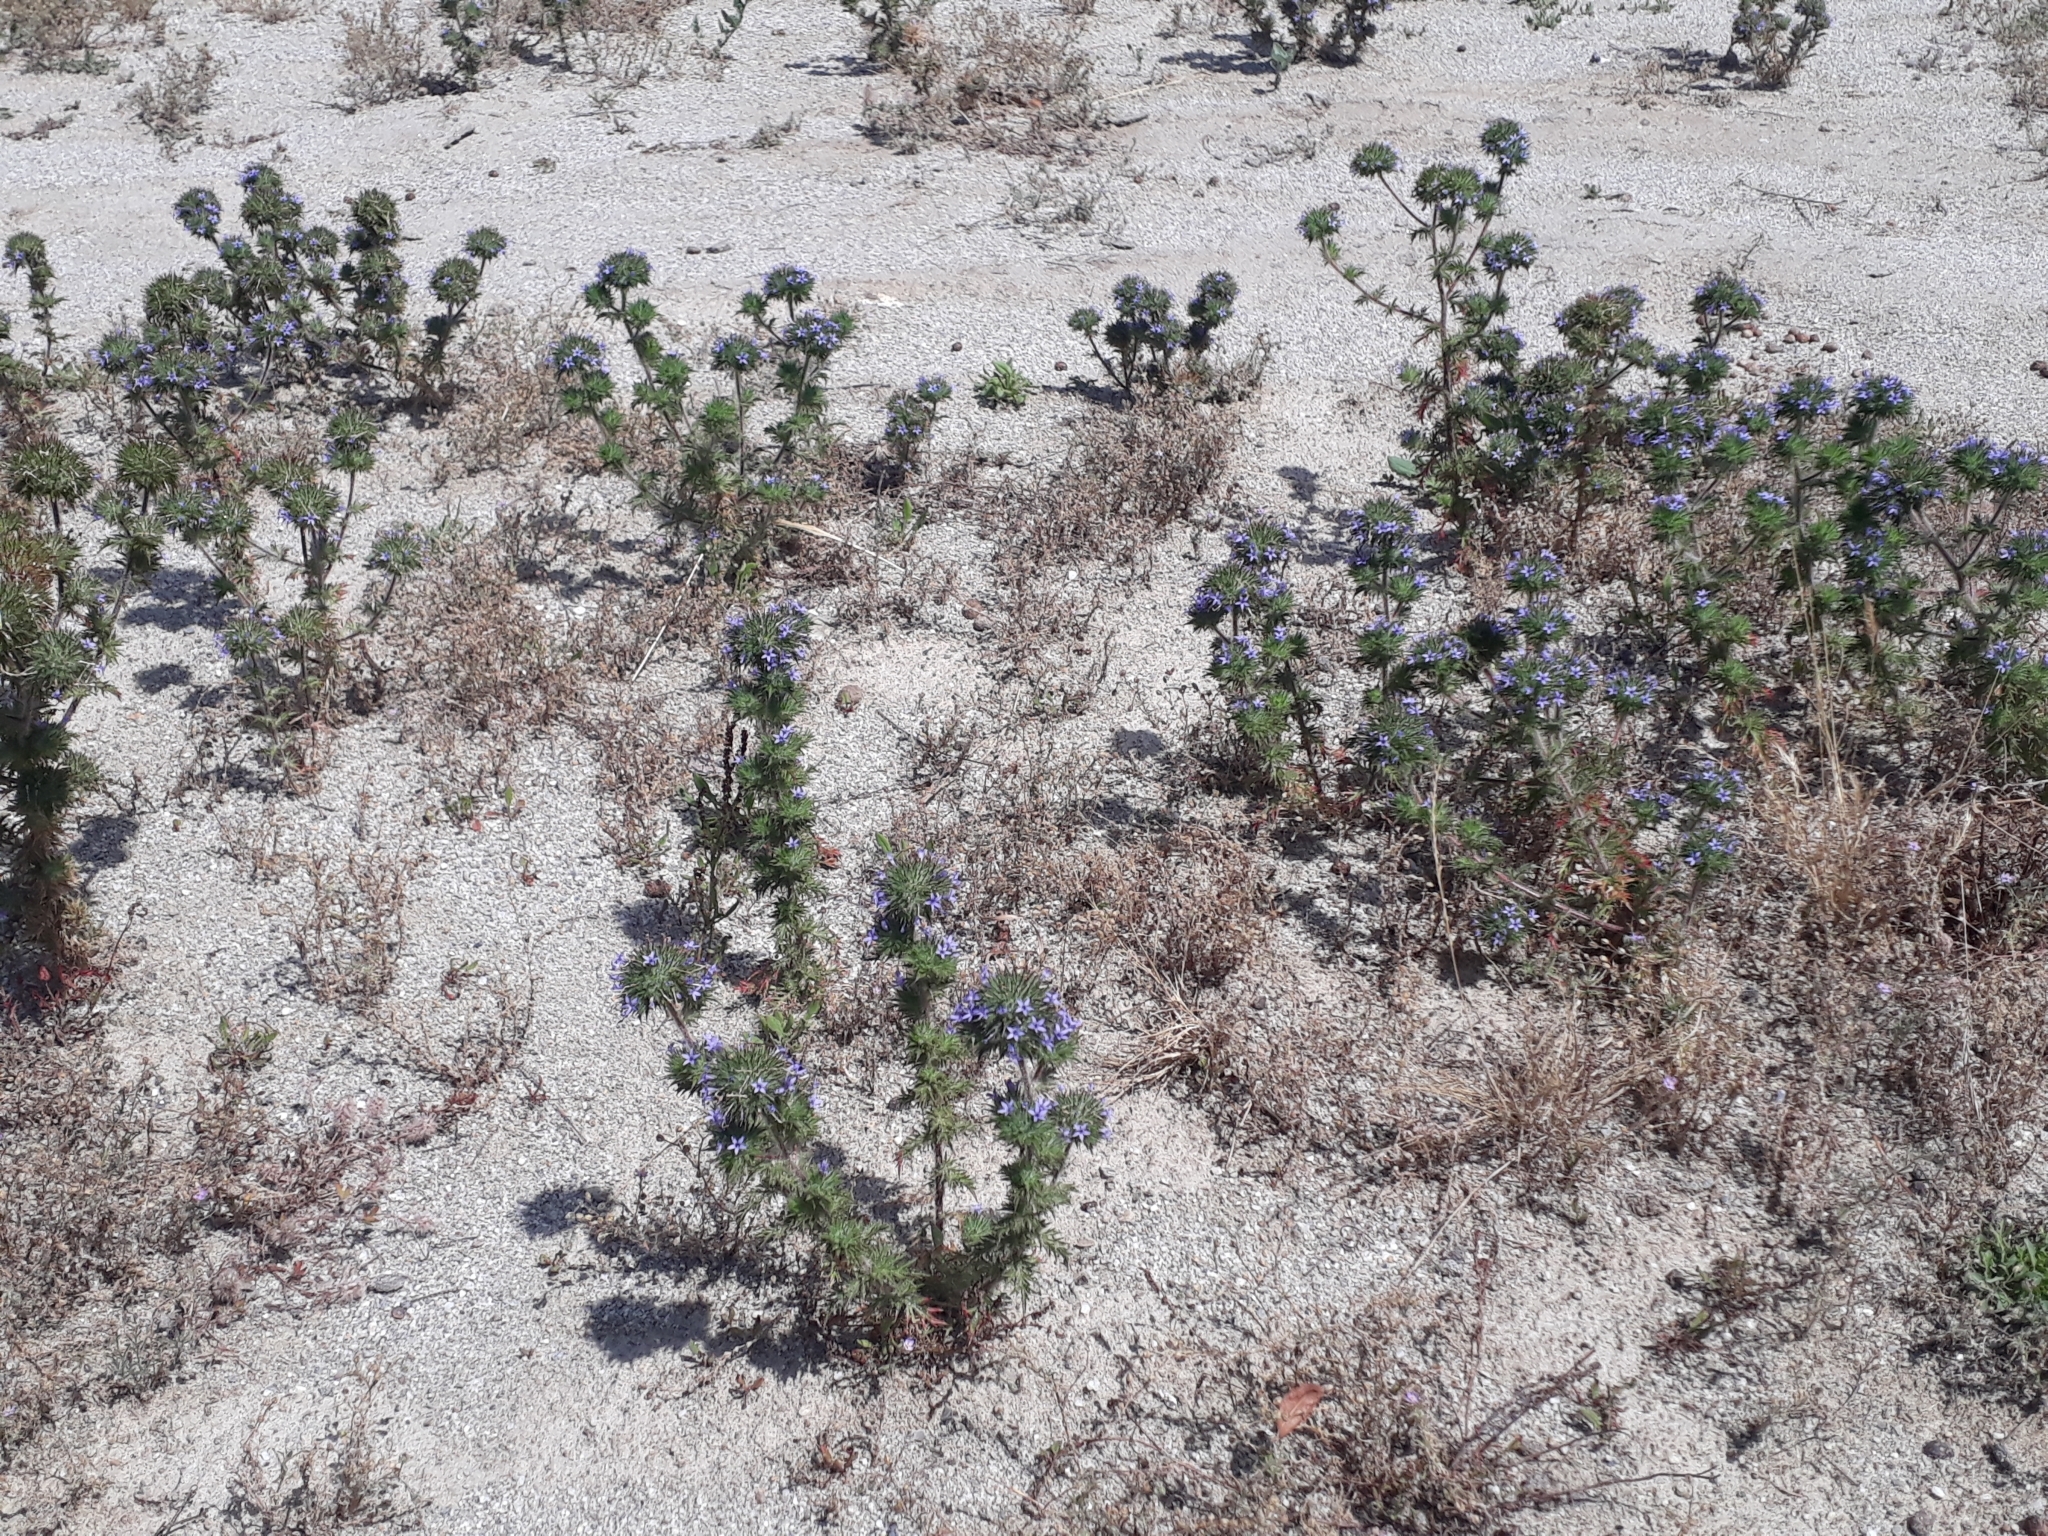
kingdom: Plantae
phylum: Tracheophyta
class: Magnoliopsida
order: Ericales
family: Polemoniaceae
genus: Navarretia
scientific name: Navarretia squarrosa
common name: Skunkweed
